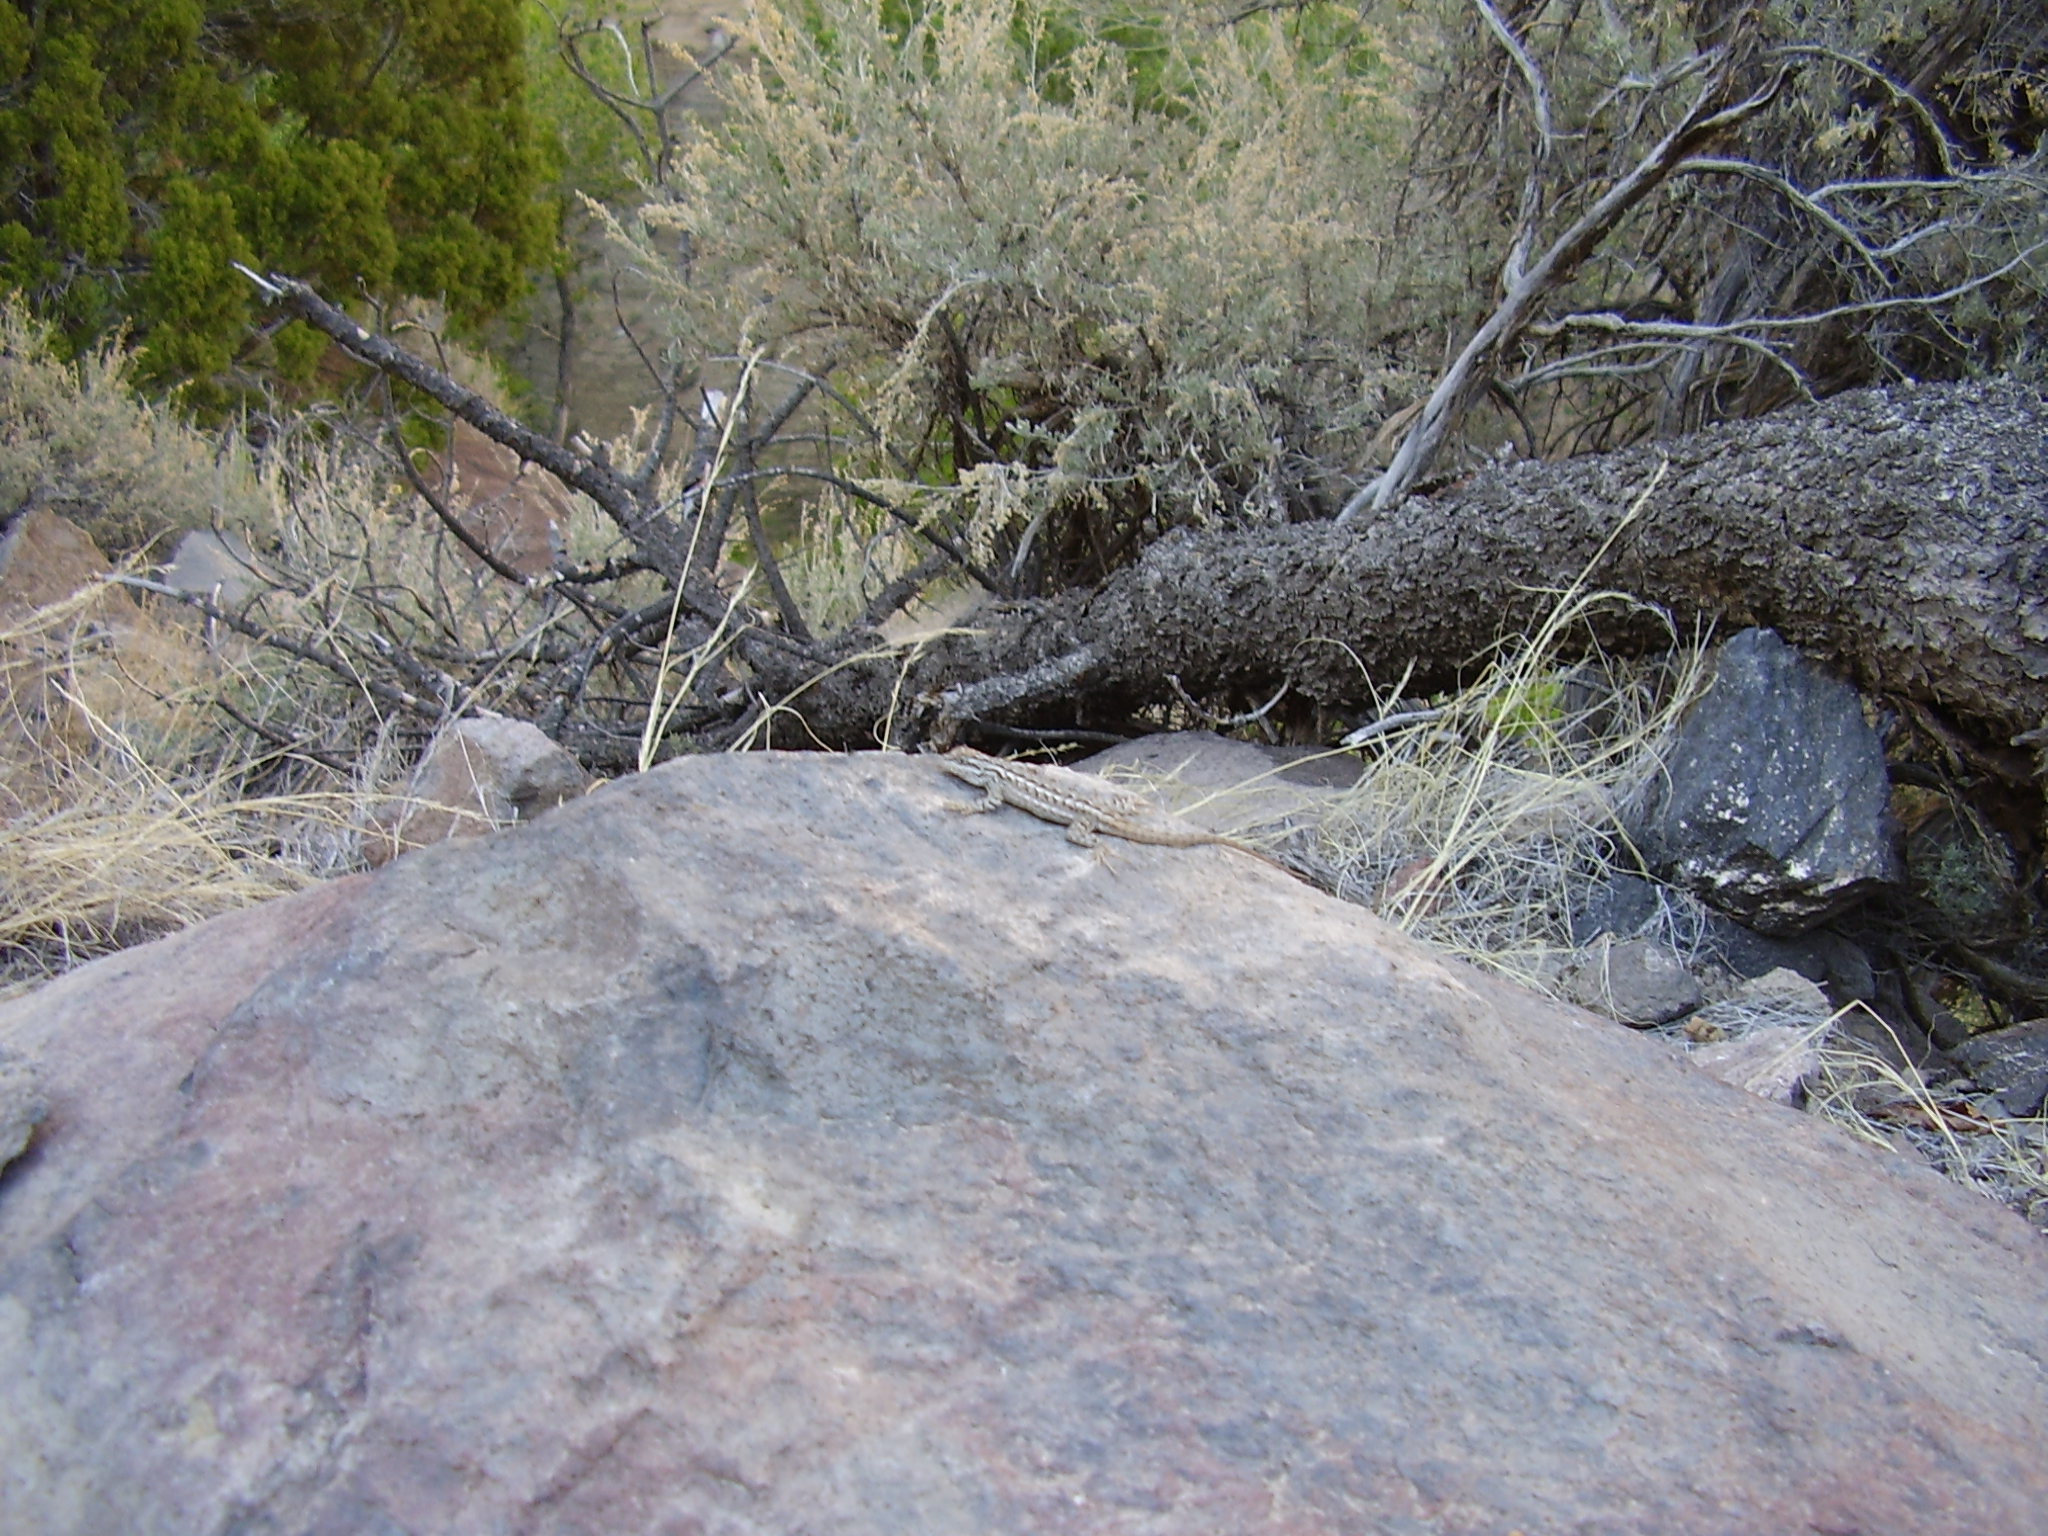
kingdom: Animalia
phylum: Chordata
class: Squamata
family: Phrynosomatidae
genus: Sceloporus
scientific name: Sceloporus cowlesi
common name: White sands prairie lizard
